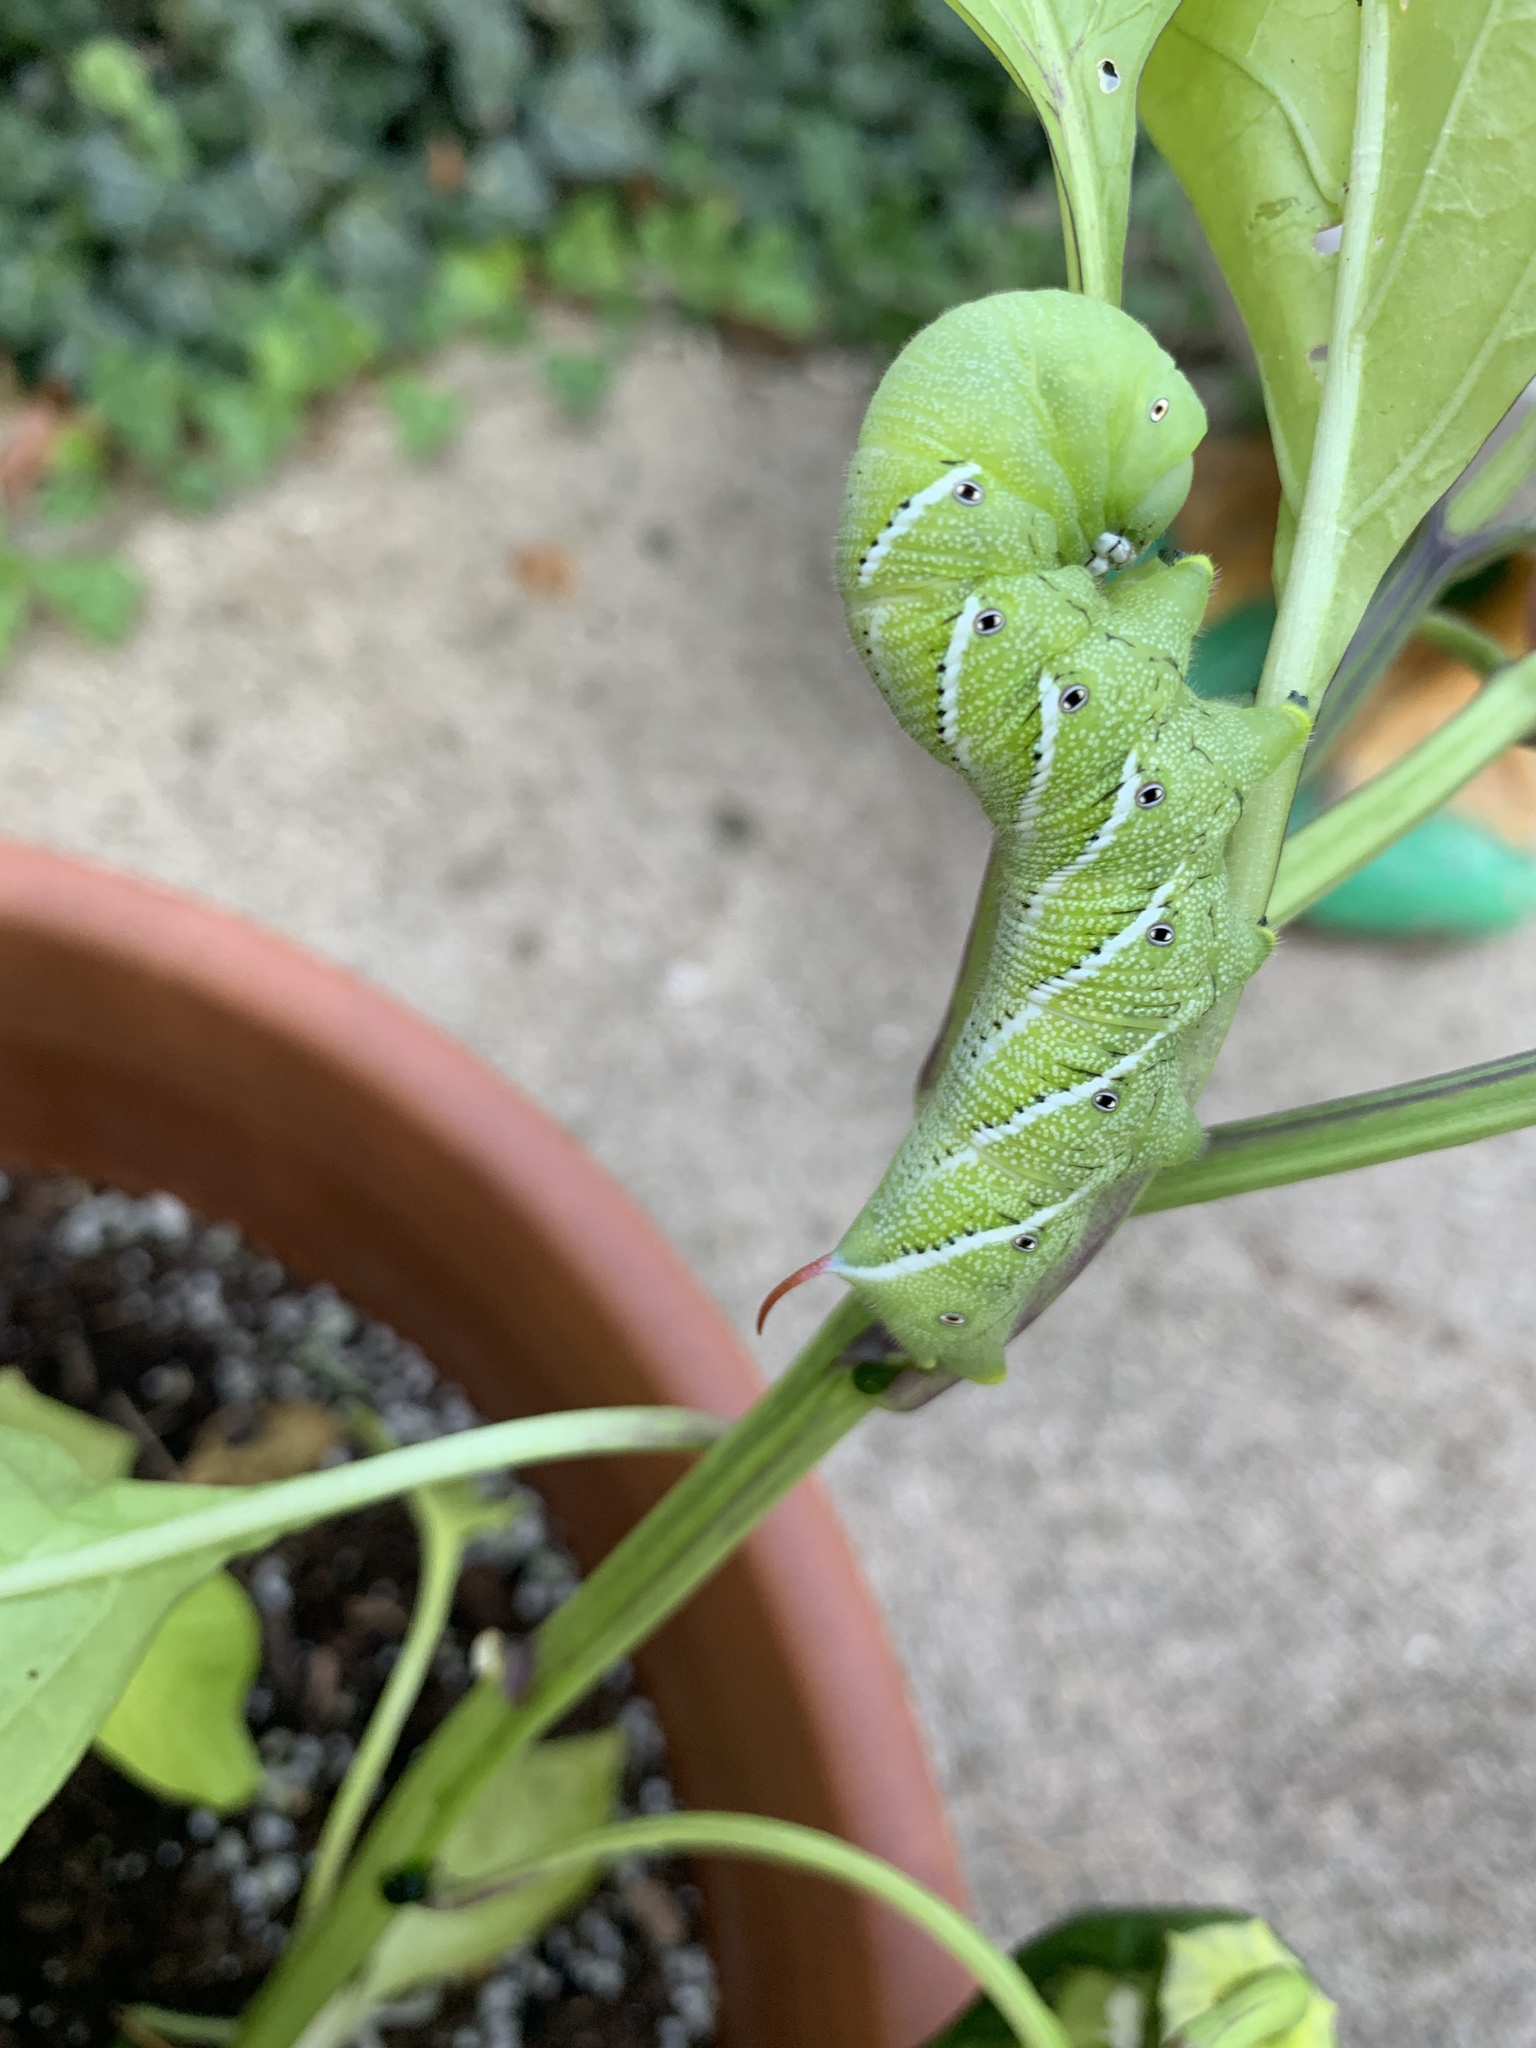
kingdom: Animalia
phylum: Arthropoda
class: Insecta
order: Lepidoptera
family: Sphingidae
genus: Manduca
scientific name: Manduca sexta
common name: Carolina sphinx
